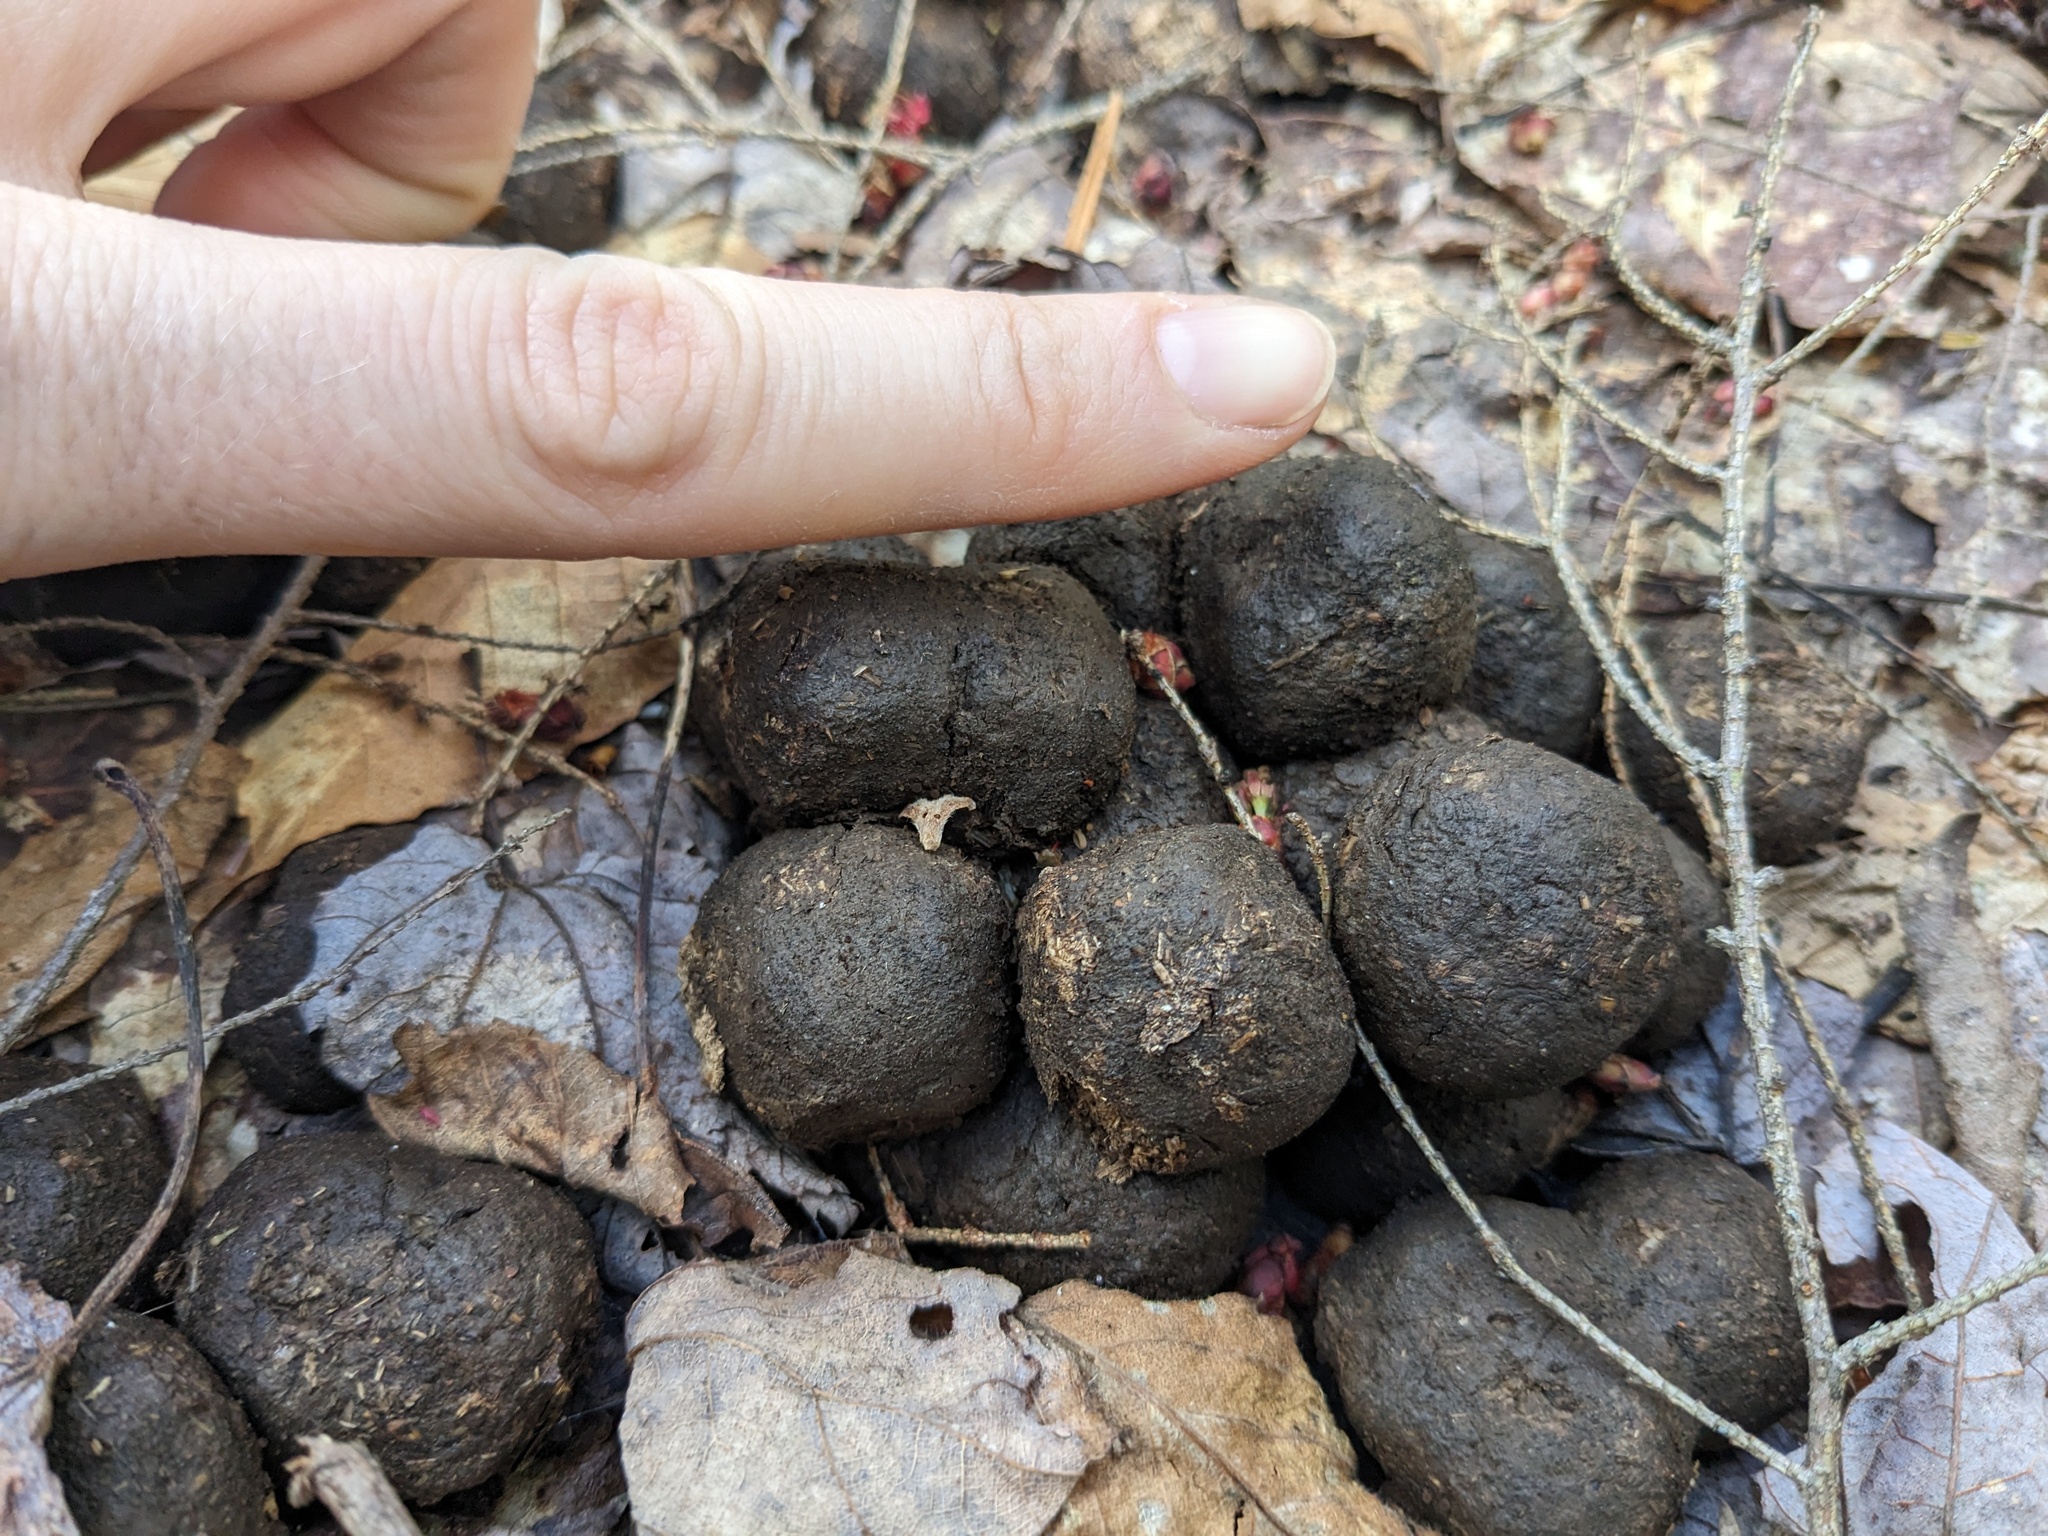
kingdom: Animalia
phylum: Chordata
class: Mammalia
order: Artiodactyla
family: Cervidae
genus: Alces
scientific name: Alces alces
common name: Moose
